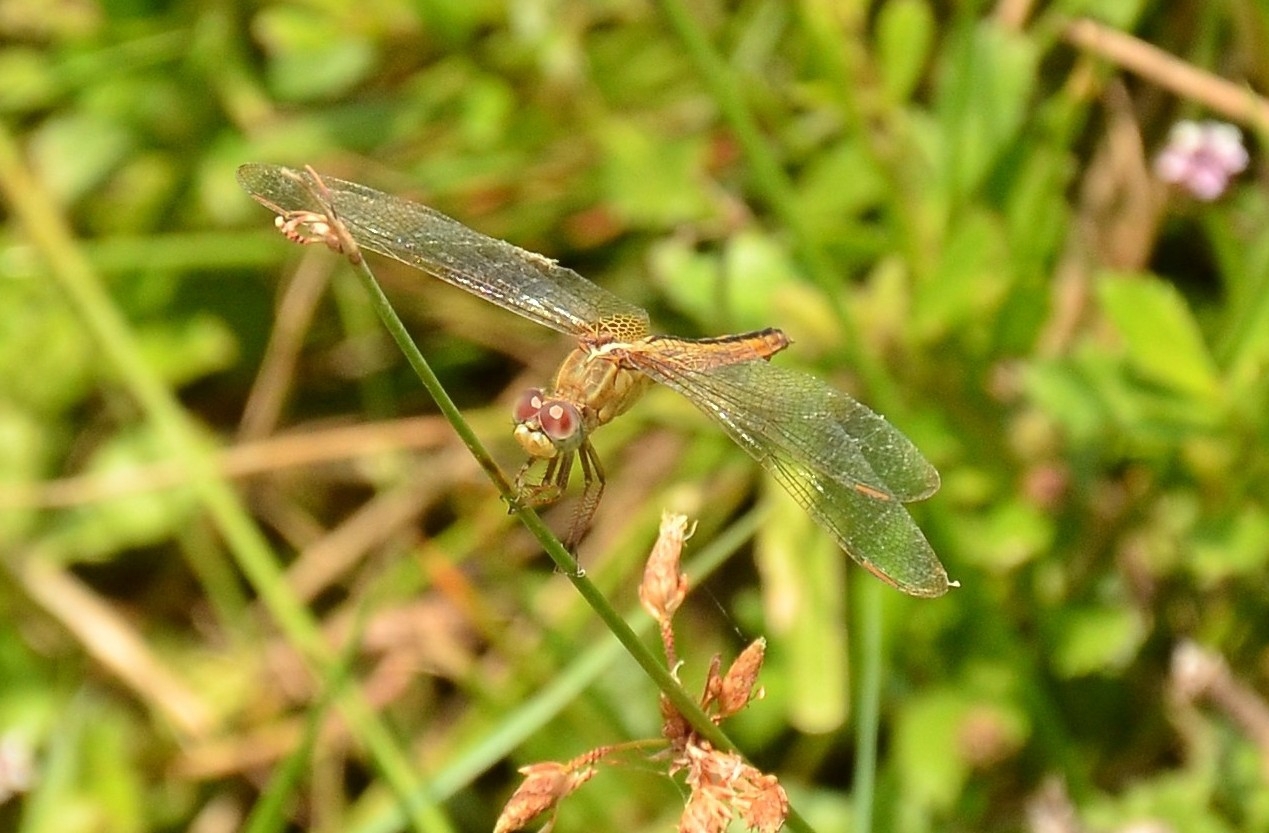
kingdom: Animalia
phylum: Arthropoda
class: Insecta
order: Odonata
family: Libellulidae
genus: Crocothemis
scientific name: Crocothemis servilia
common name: Scarlet skimmer
